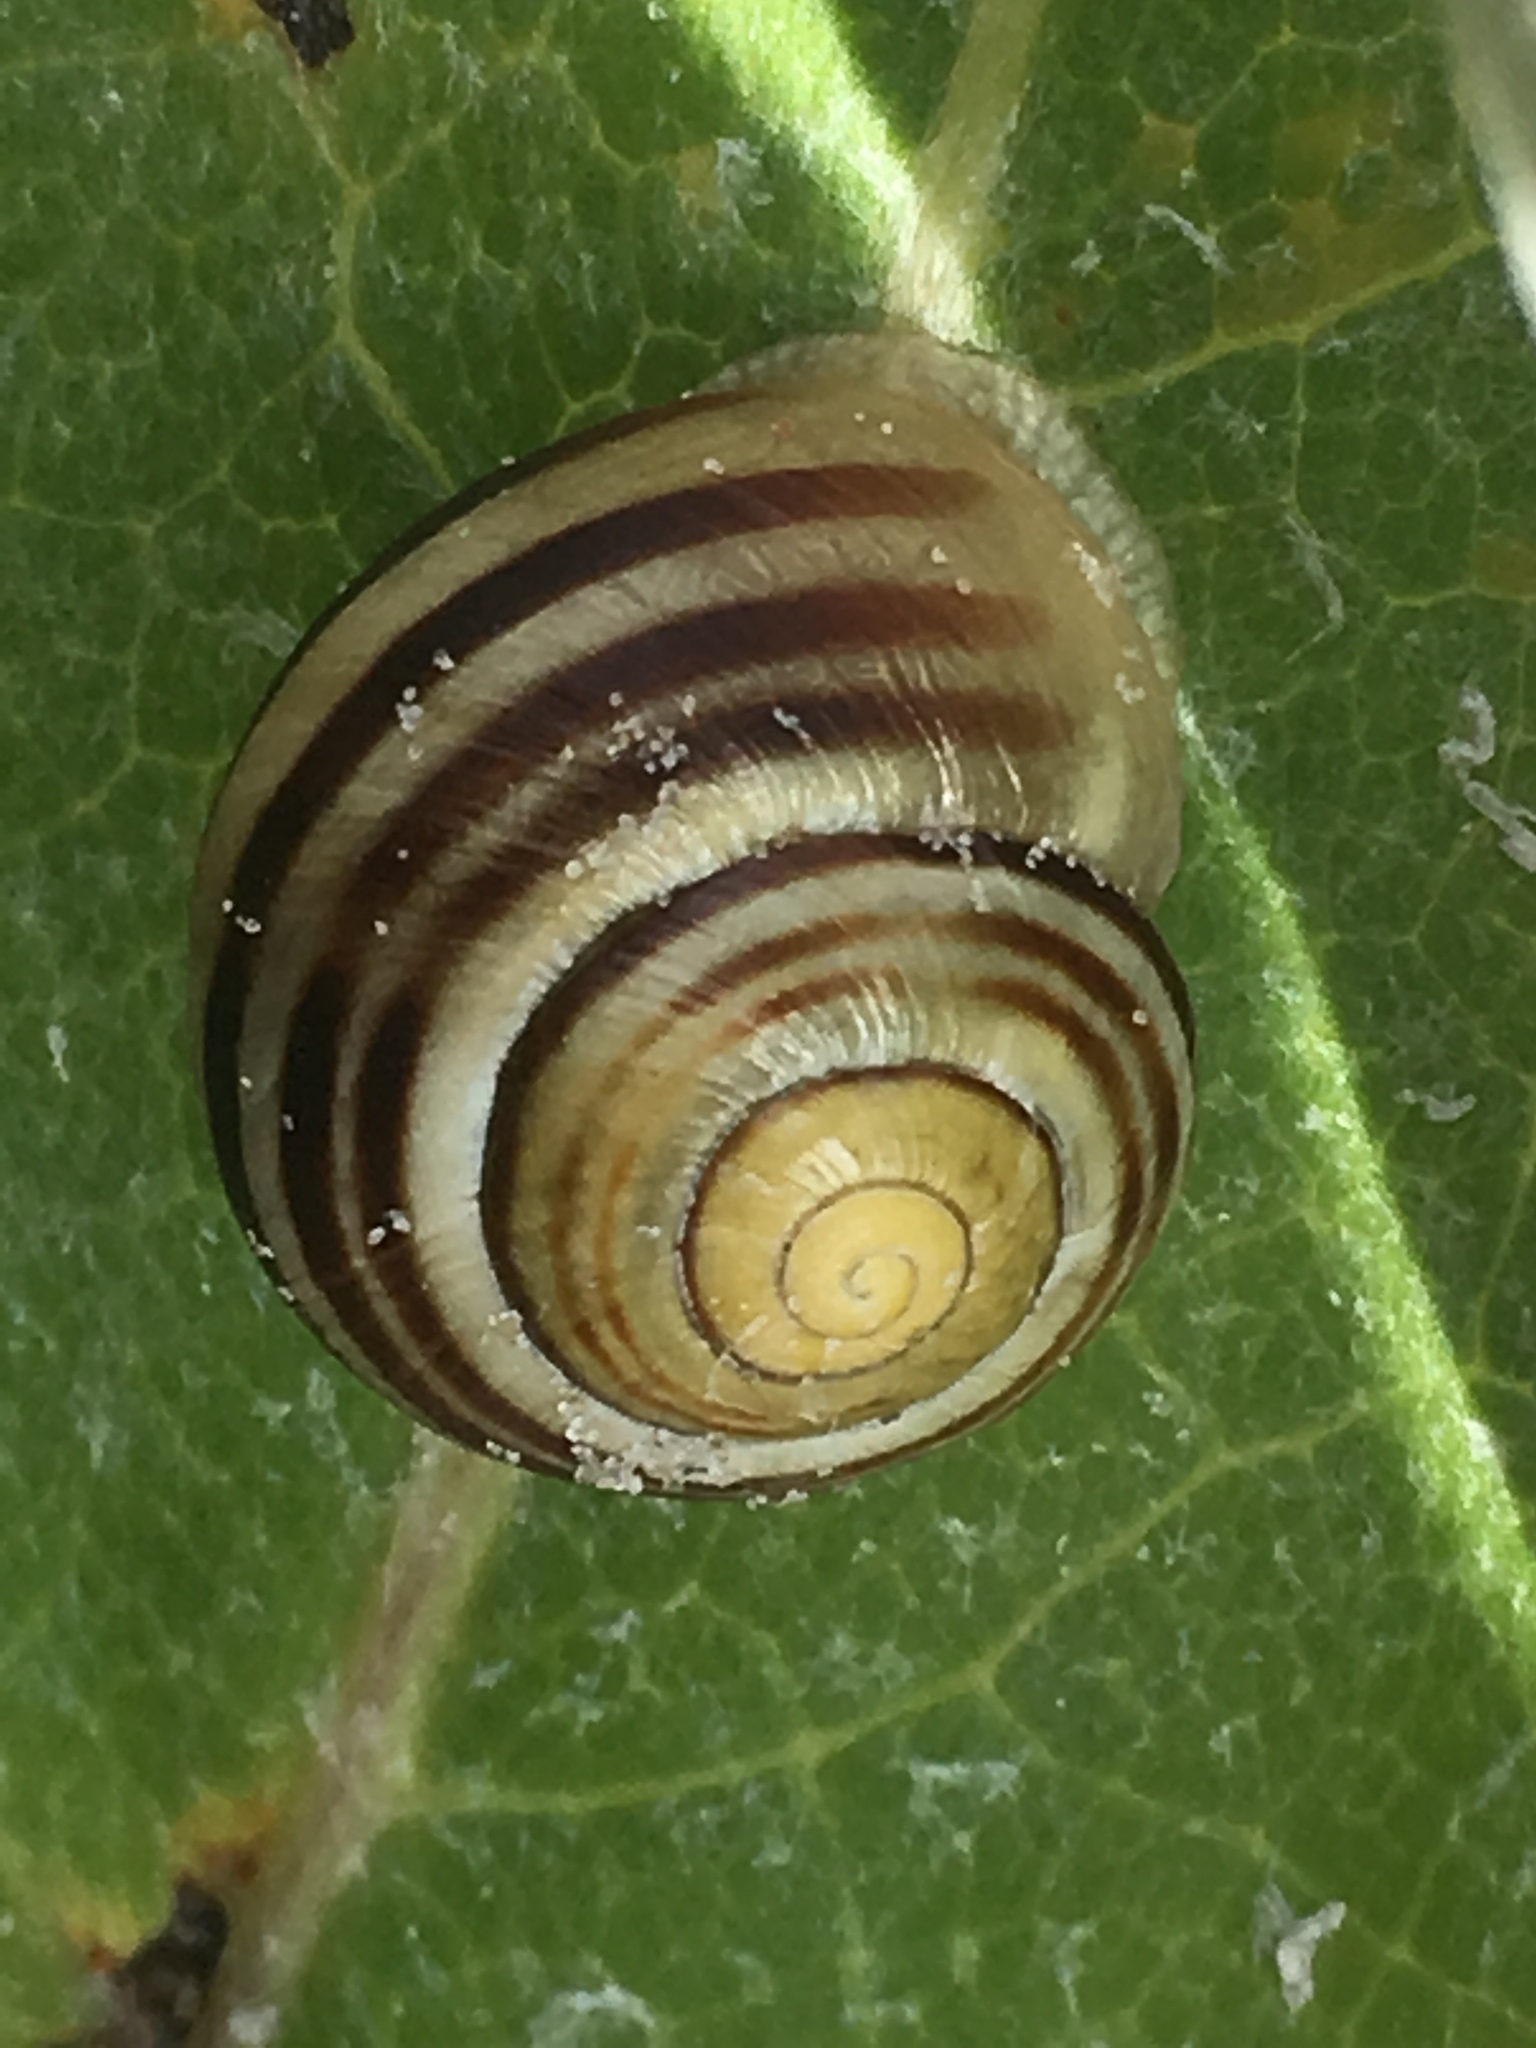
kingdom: Animalia
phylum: Mollusca
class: Gastropoda
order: Stylommatophora
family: Helicidae
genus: Cepaea
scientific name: Cepaea hortensis
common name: White-lip gardensnail
